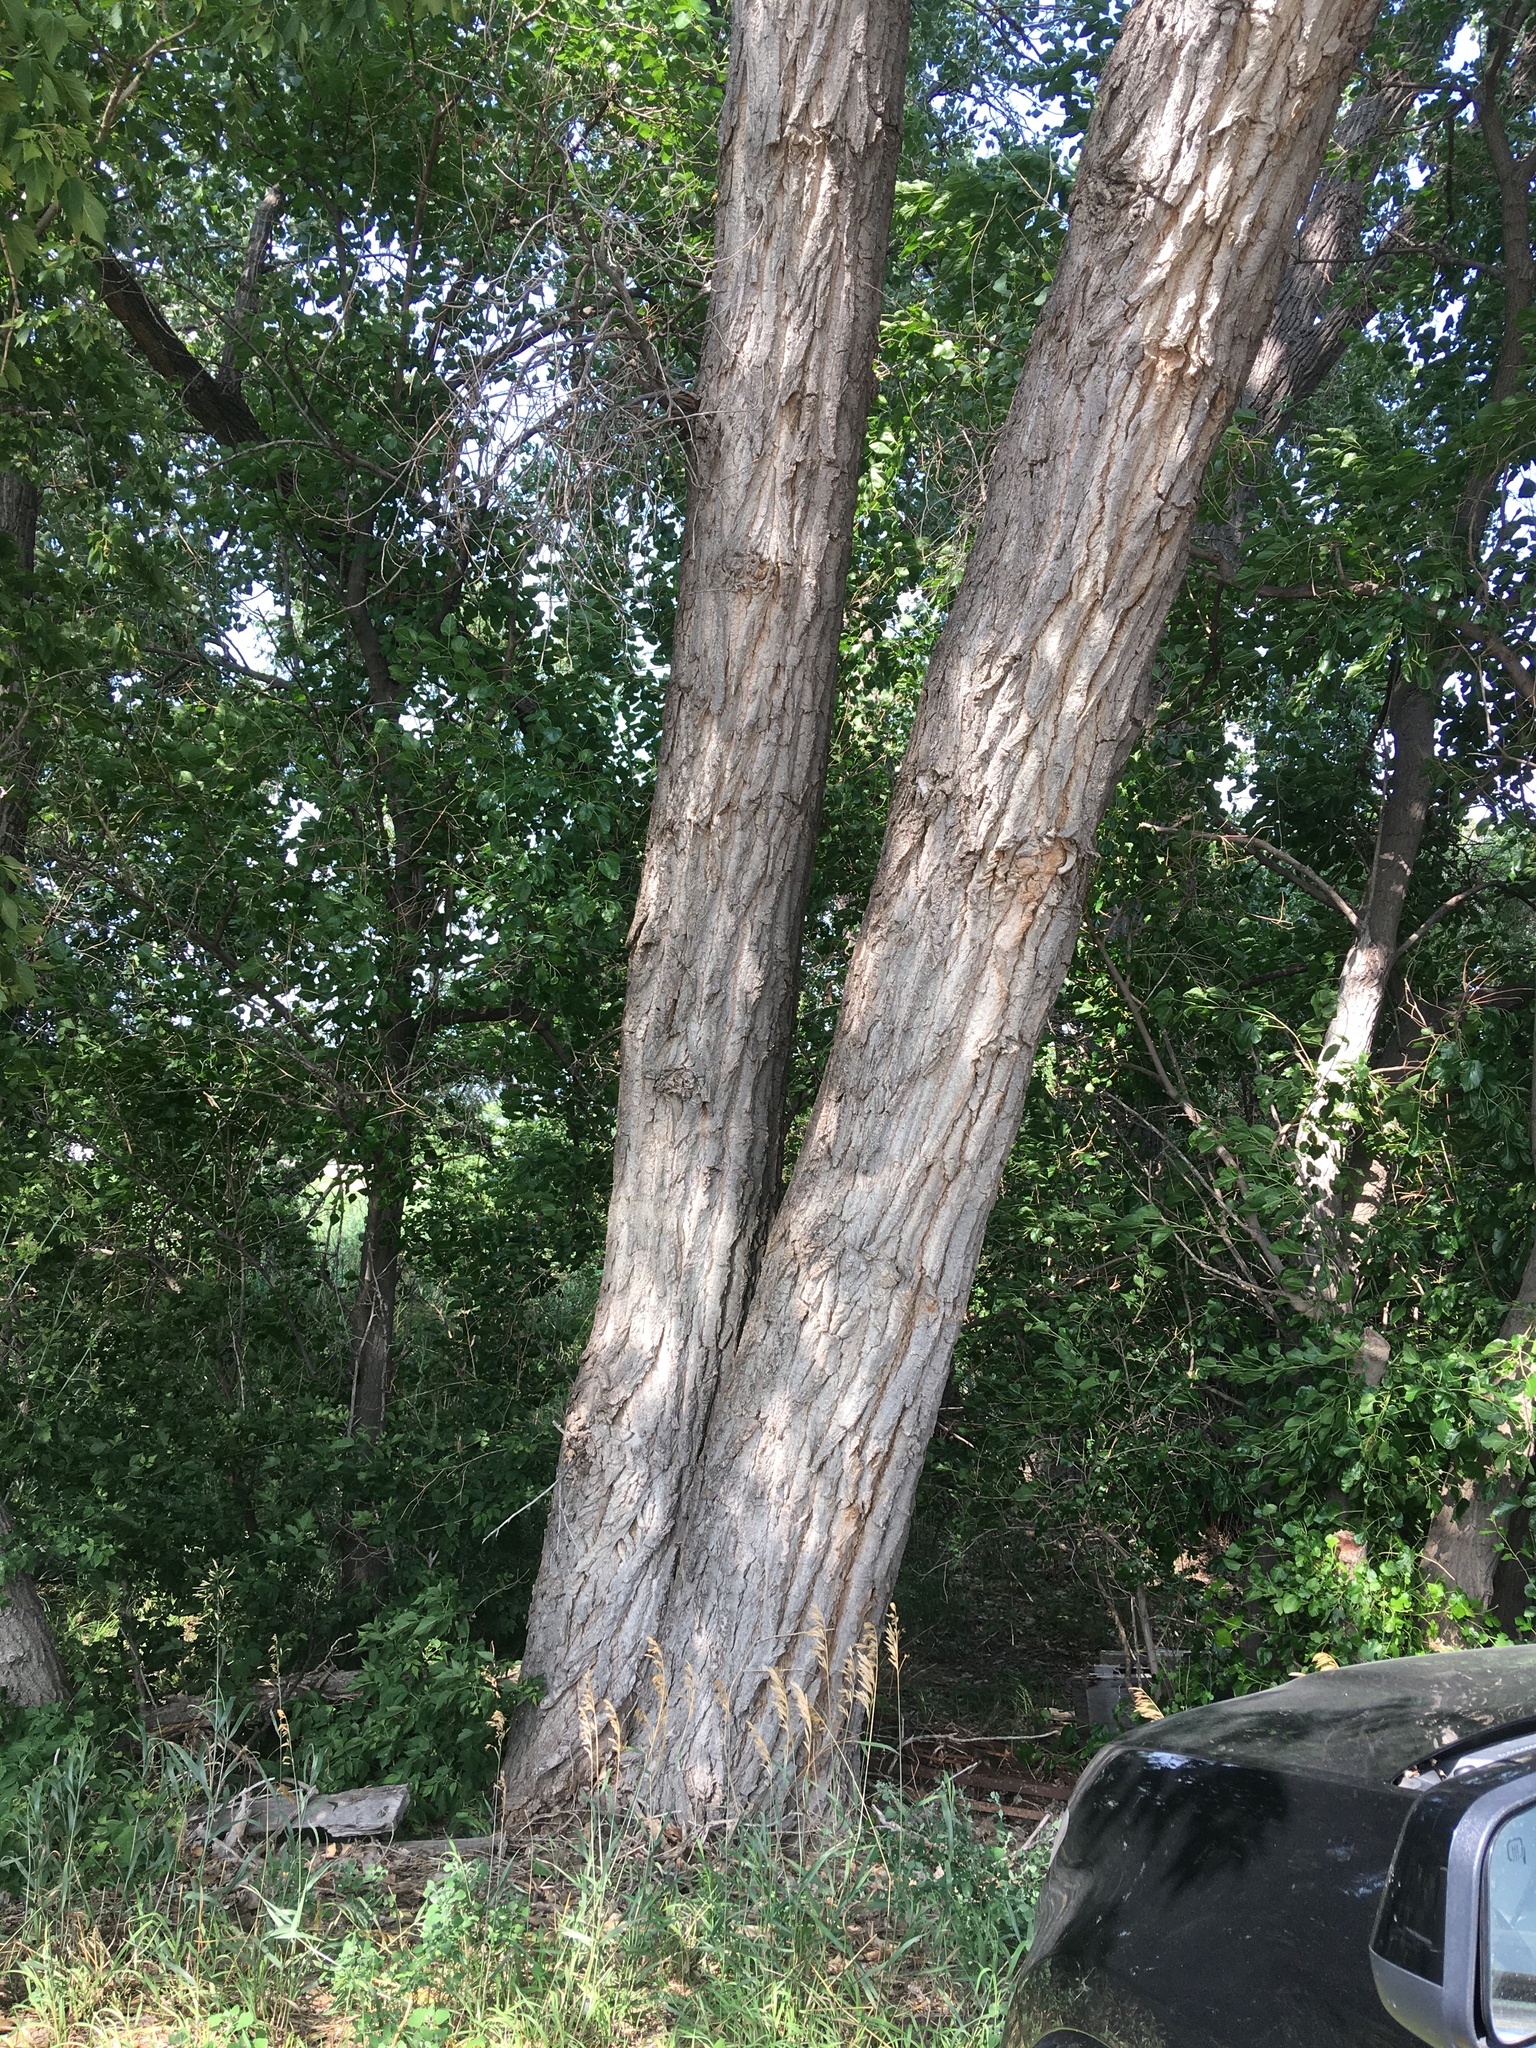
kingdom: Plantae
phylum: Tracheophyta
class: Magnoliopsida
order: Malpighiales
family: Salicaceae
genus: Populus
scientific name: Populus deltoides
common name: Eastern cottonwood
